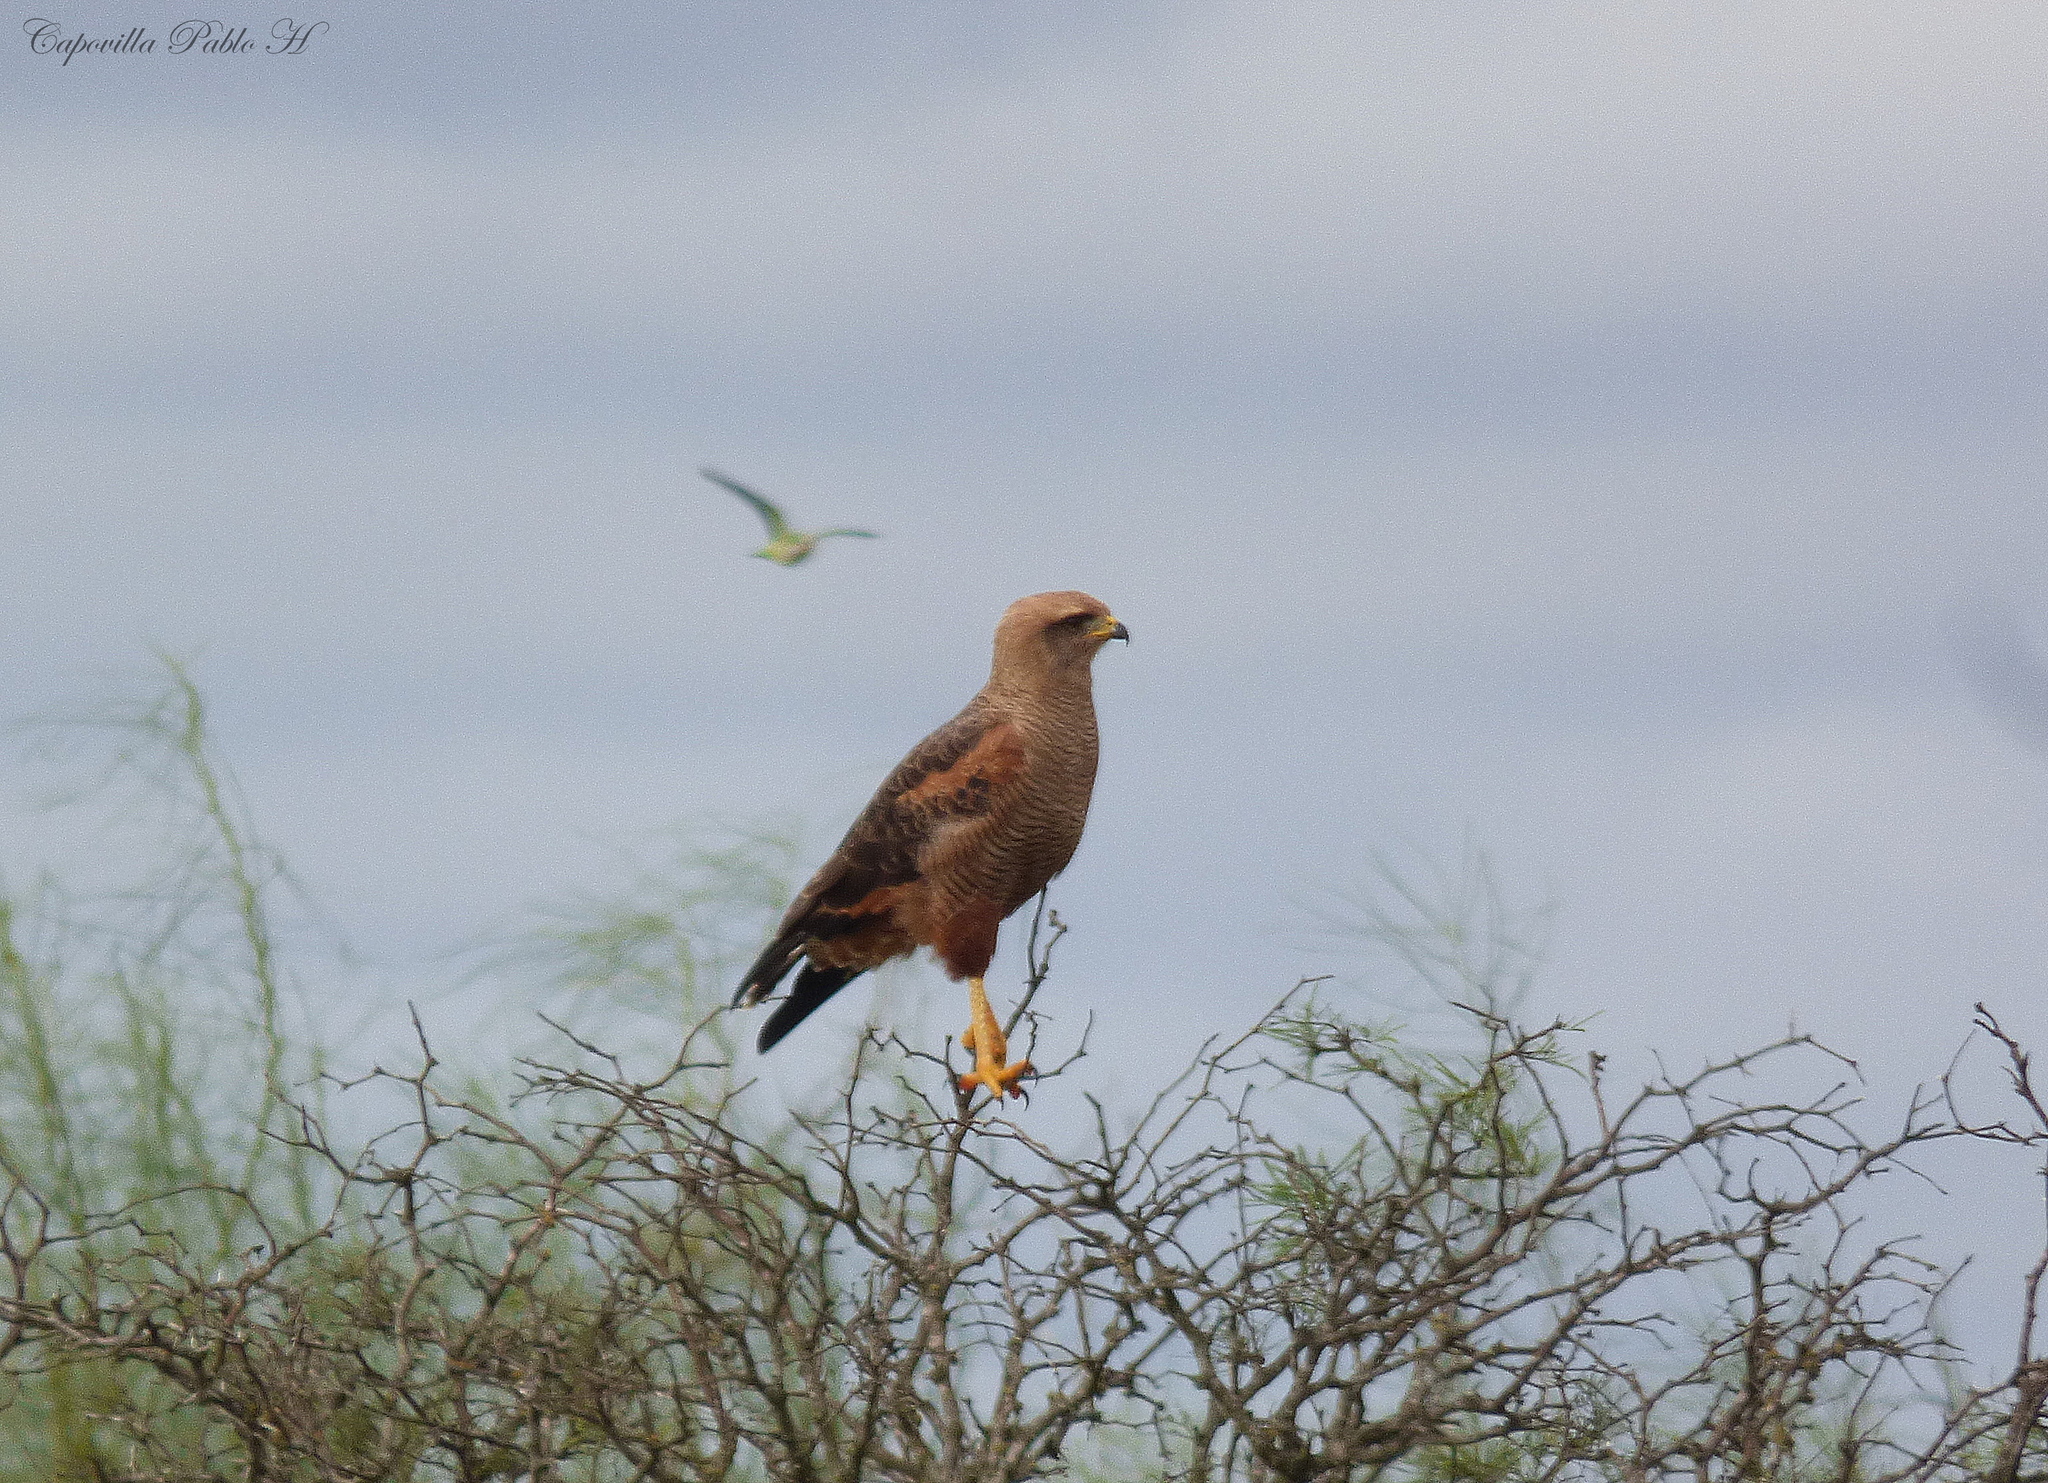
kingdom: Animalia
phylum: Chordata
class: Aves
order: Accipitriformes
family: Accipitridae
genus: Buteogallus
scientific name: Buteogallus meridionalis
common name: Savanna hawk
